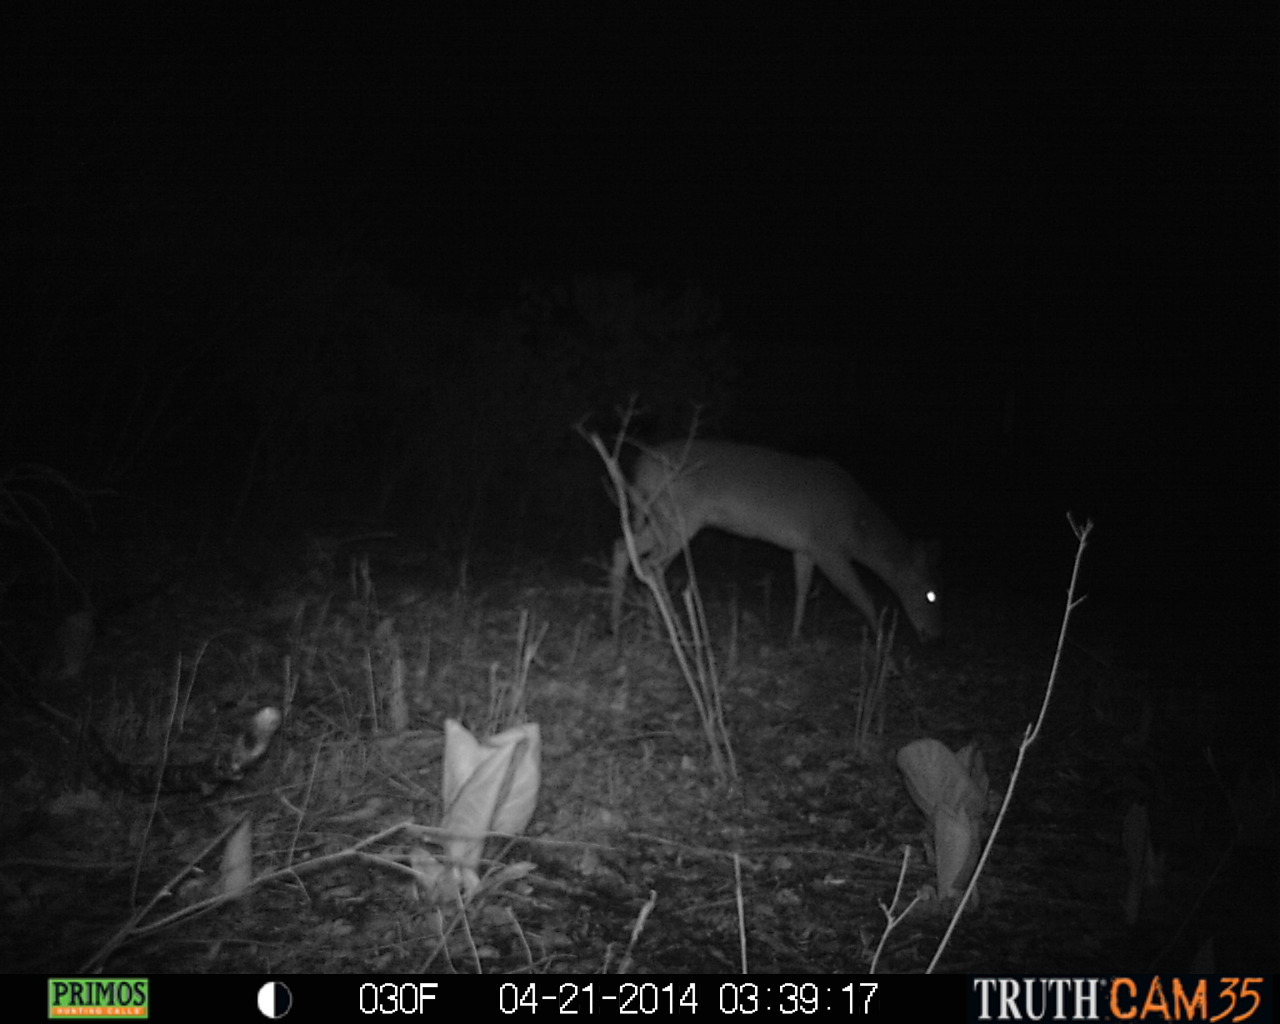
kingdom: Animalia
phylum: Chordata
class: Mammalia
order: Artiodactyla
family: Cervidae
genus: Odocoileus
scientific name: Odocoileus virginianus
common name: White-tailed deer
